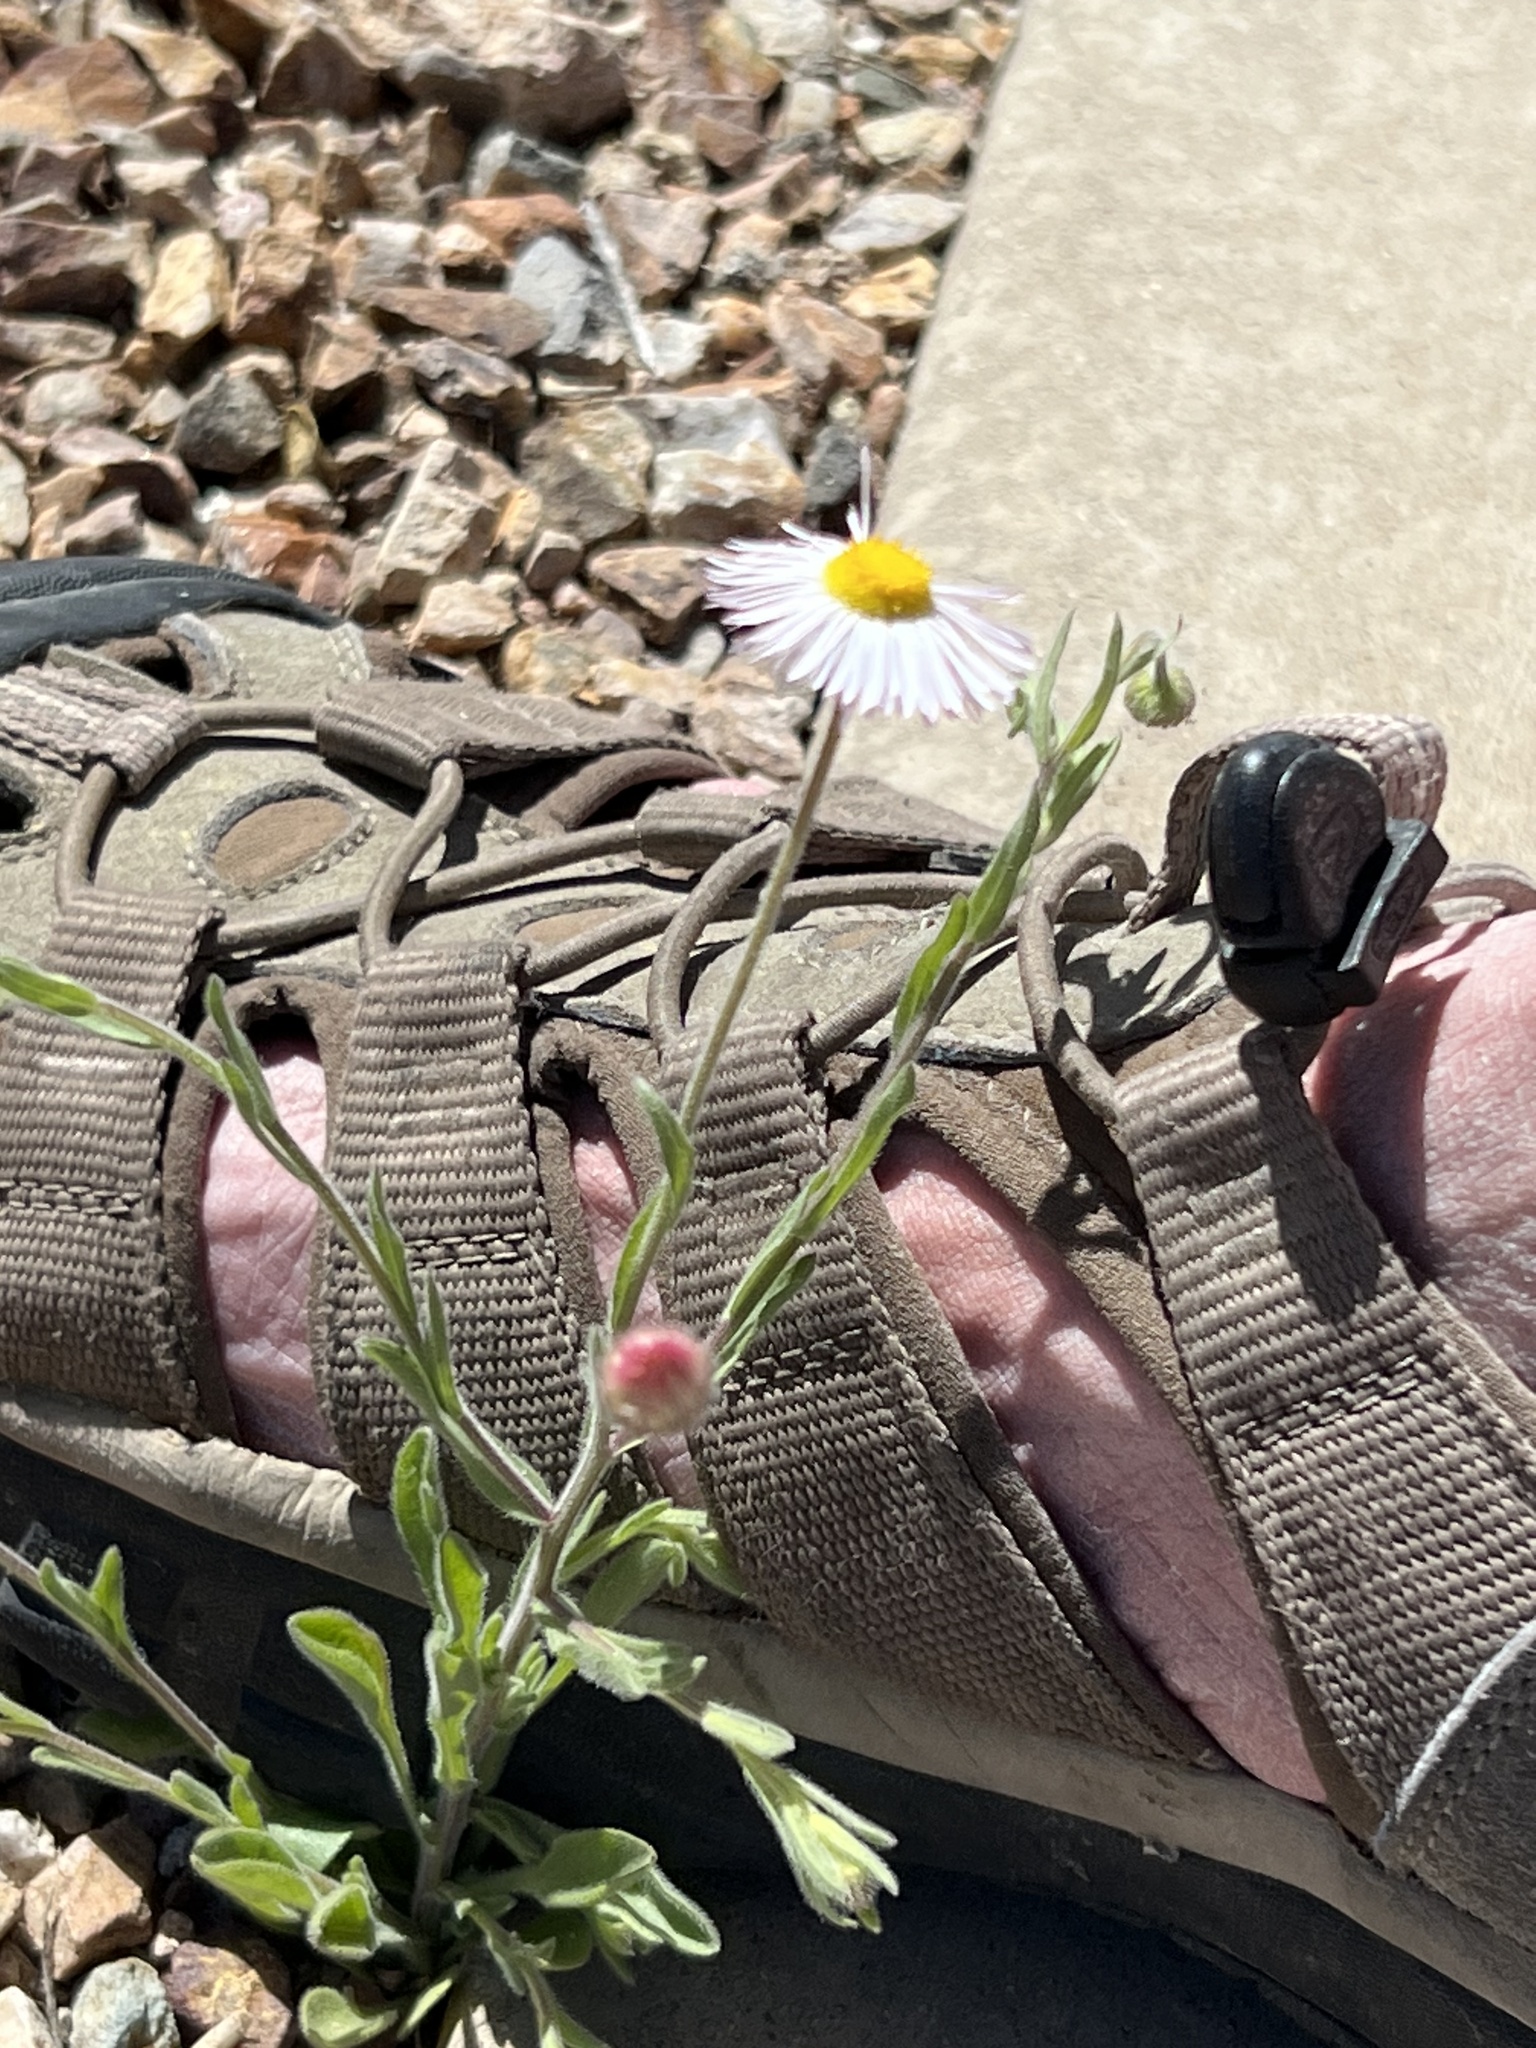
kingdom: Plantae
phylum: Tracheophyta
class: Magnoliopsida
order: Asterales
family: Asteraceae
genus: Erigeron
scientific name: Erigeron divergens
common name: Diffuse fleabane
